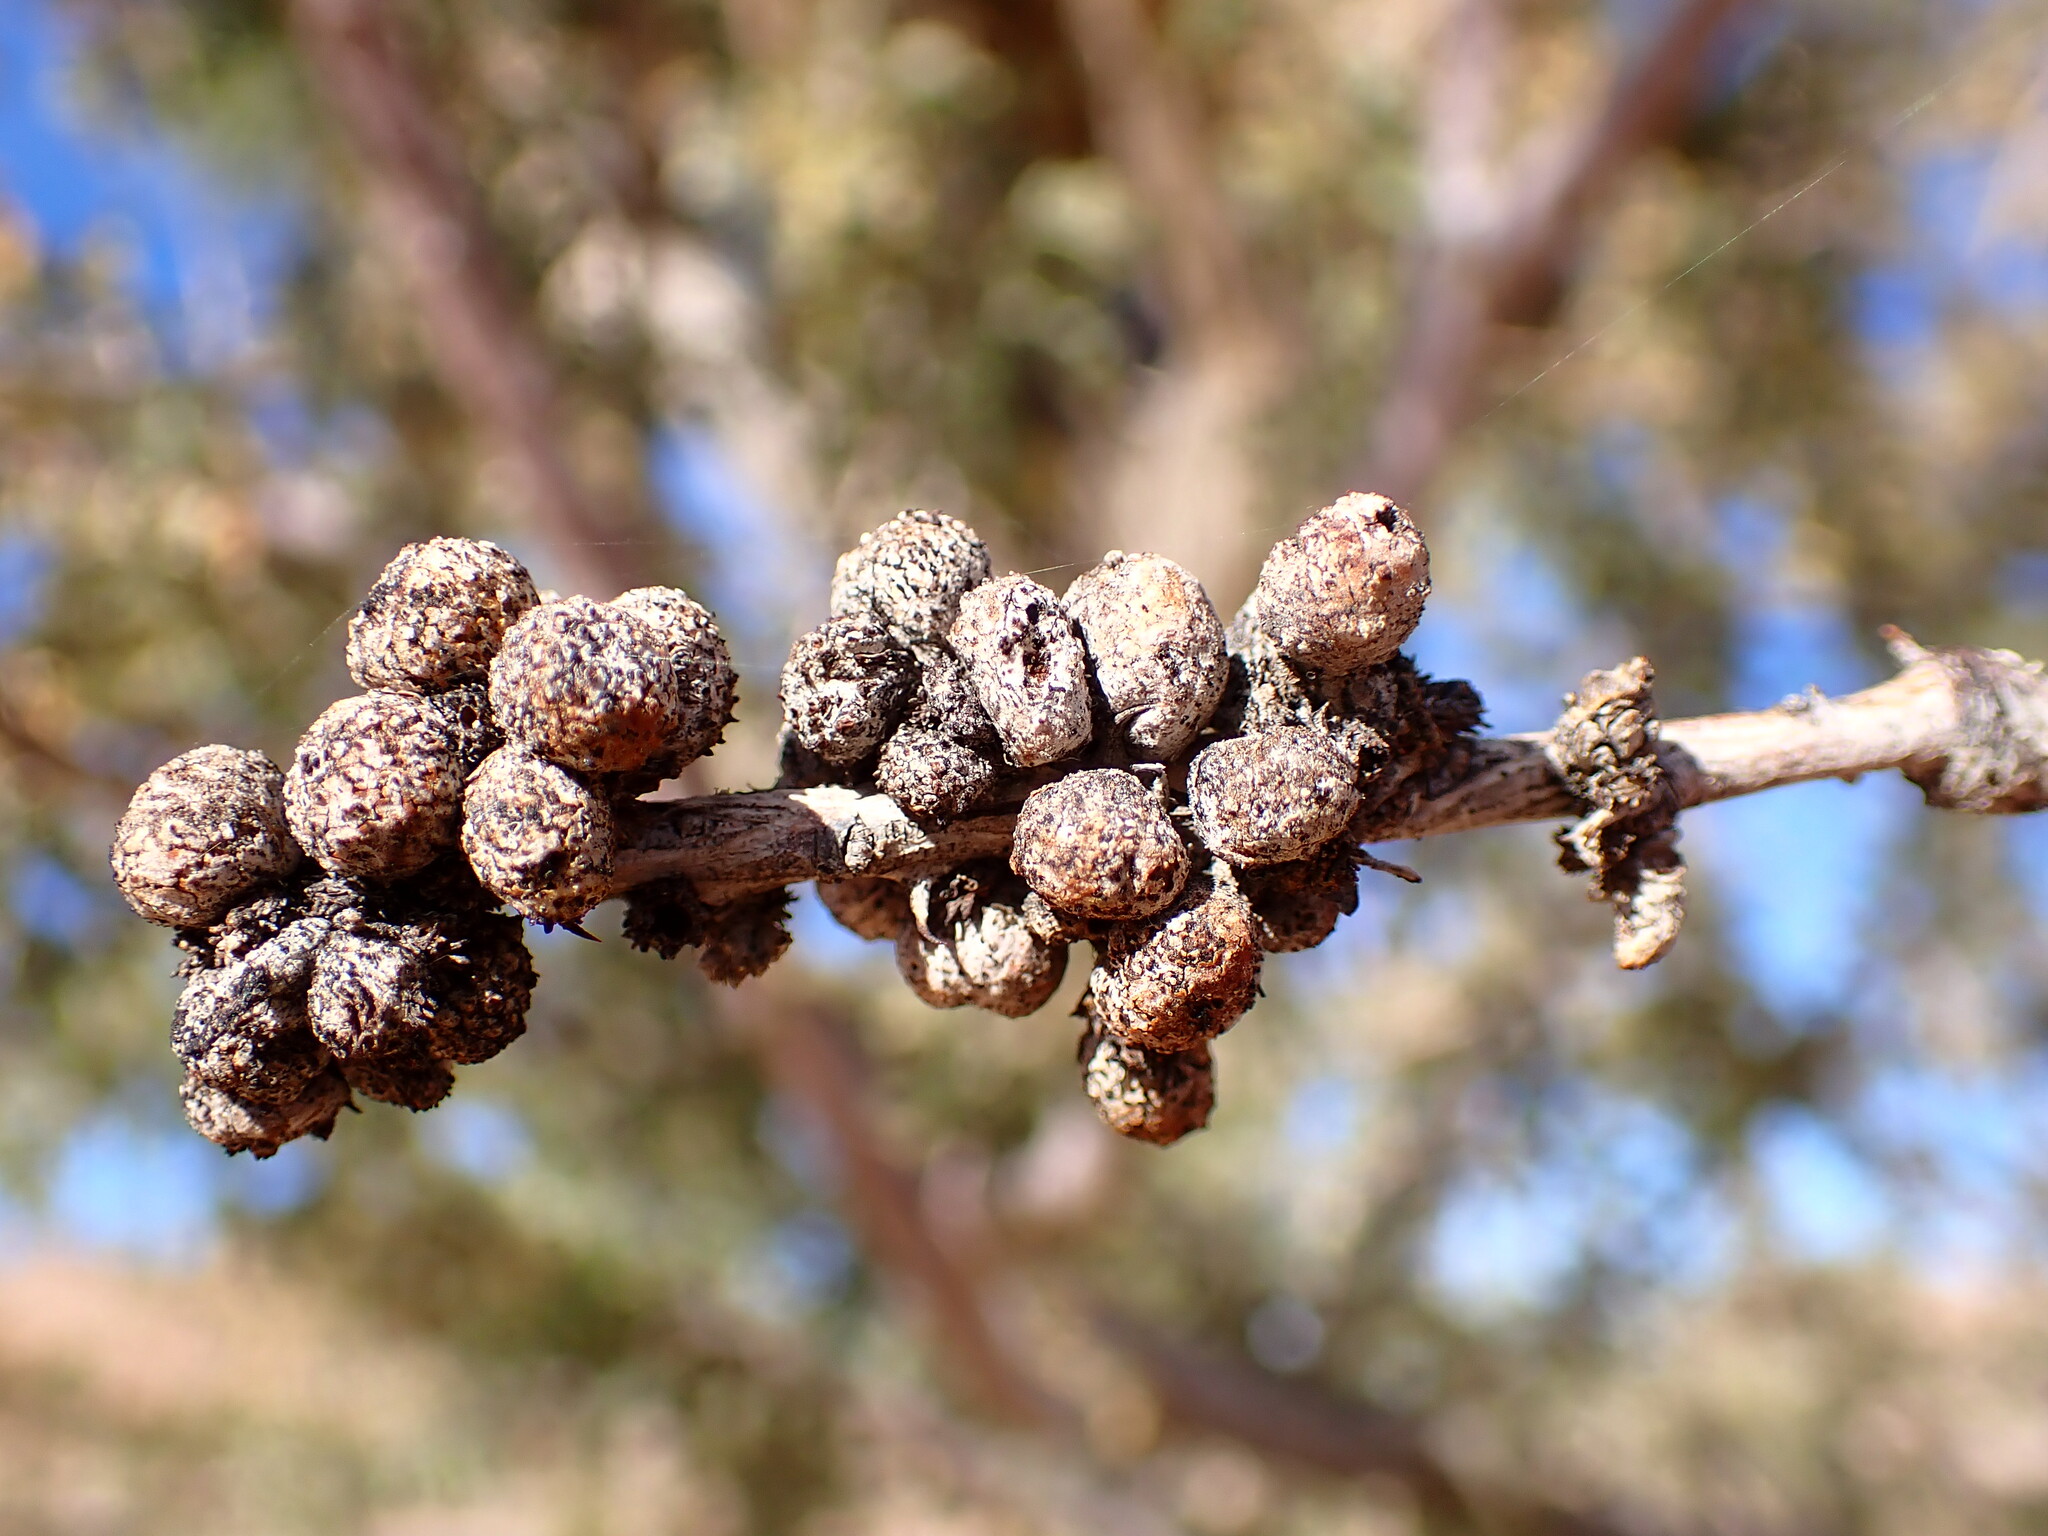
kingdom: Animalia
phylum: Arthropoda
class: Insecta
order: Hymenoptera
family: Tanaostigmatidae
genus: Tanaostigmodes
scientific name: Tanaostigmodes howardii
